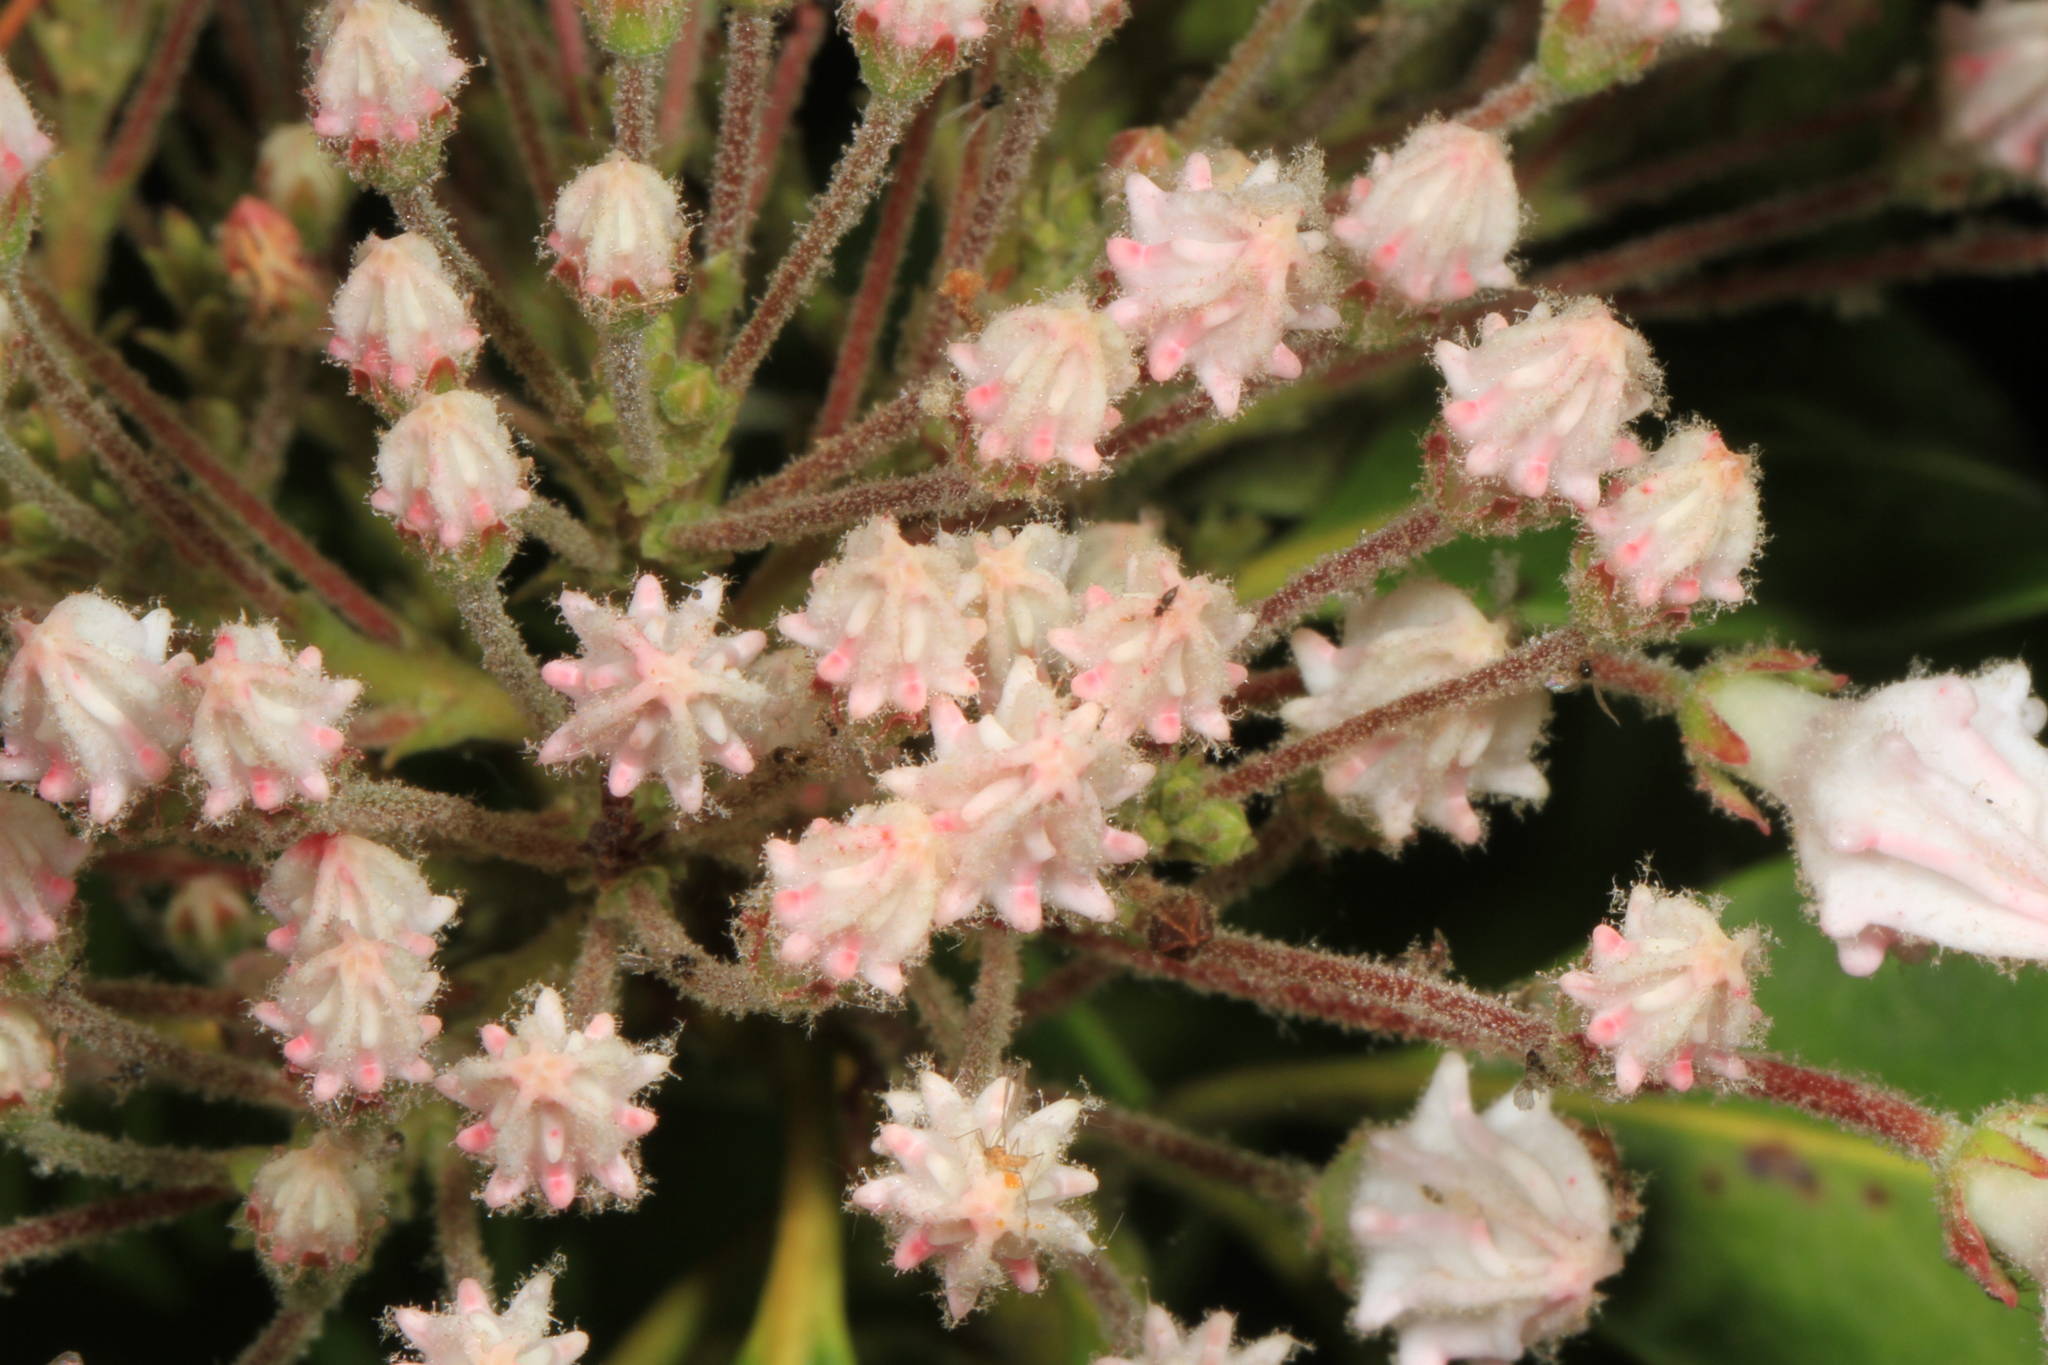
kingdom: Plantae
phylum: Tracheophyta
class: Magnoliopsida
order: Ericales
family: Ericaceae
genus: Kalmia
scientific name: Kalmia latifolia
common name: Mountain-laurel
